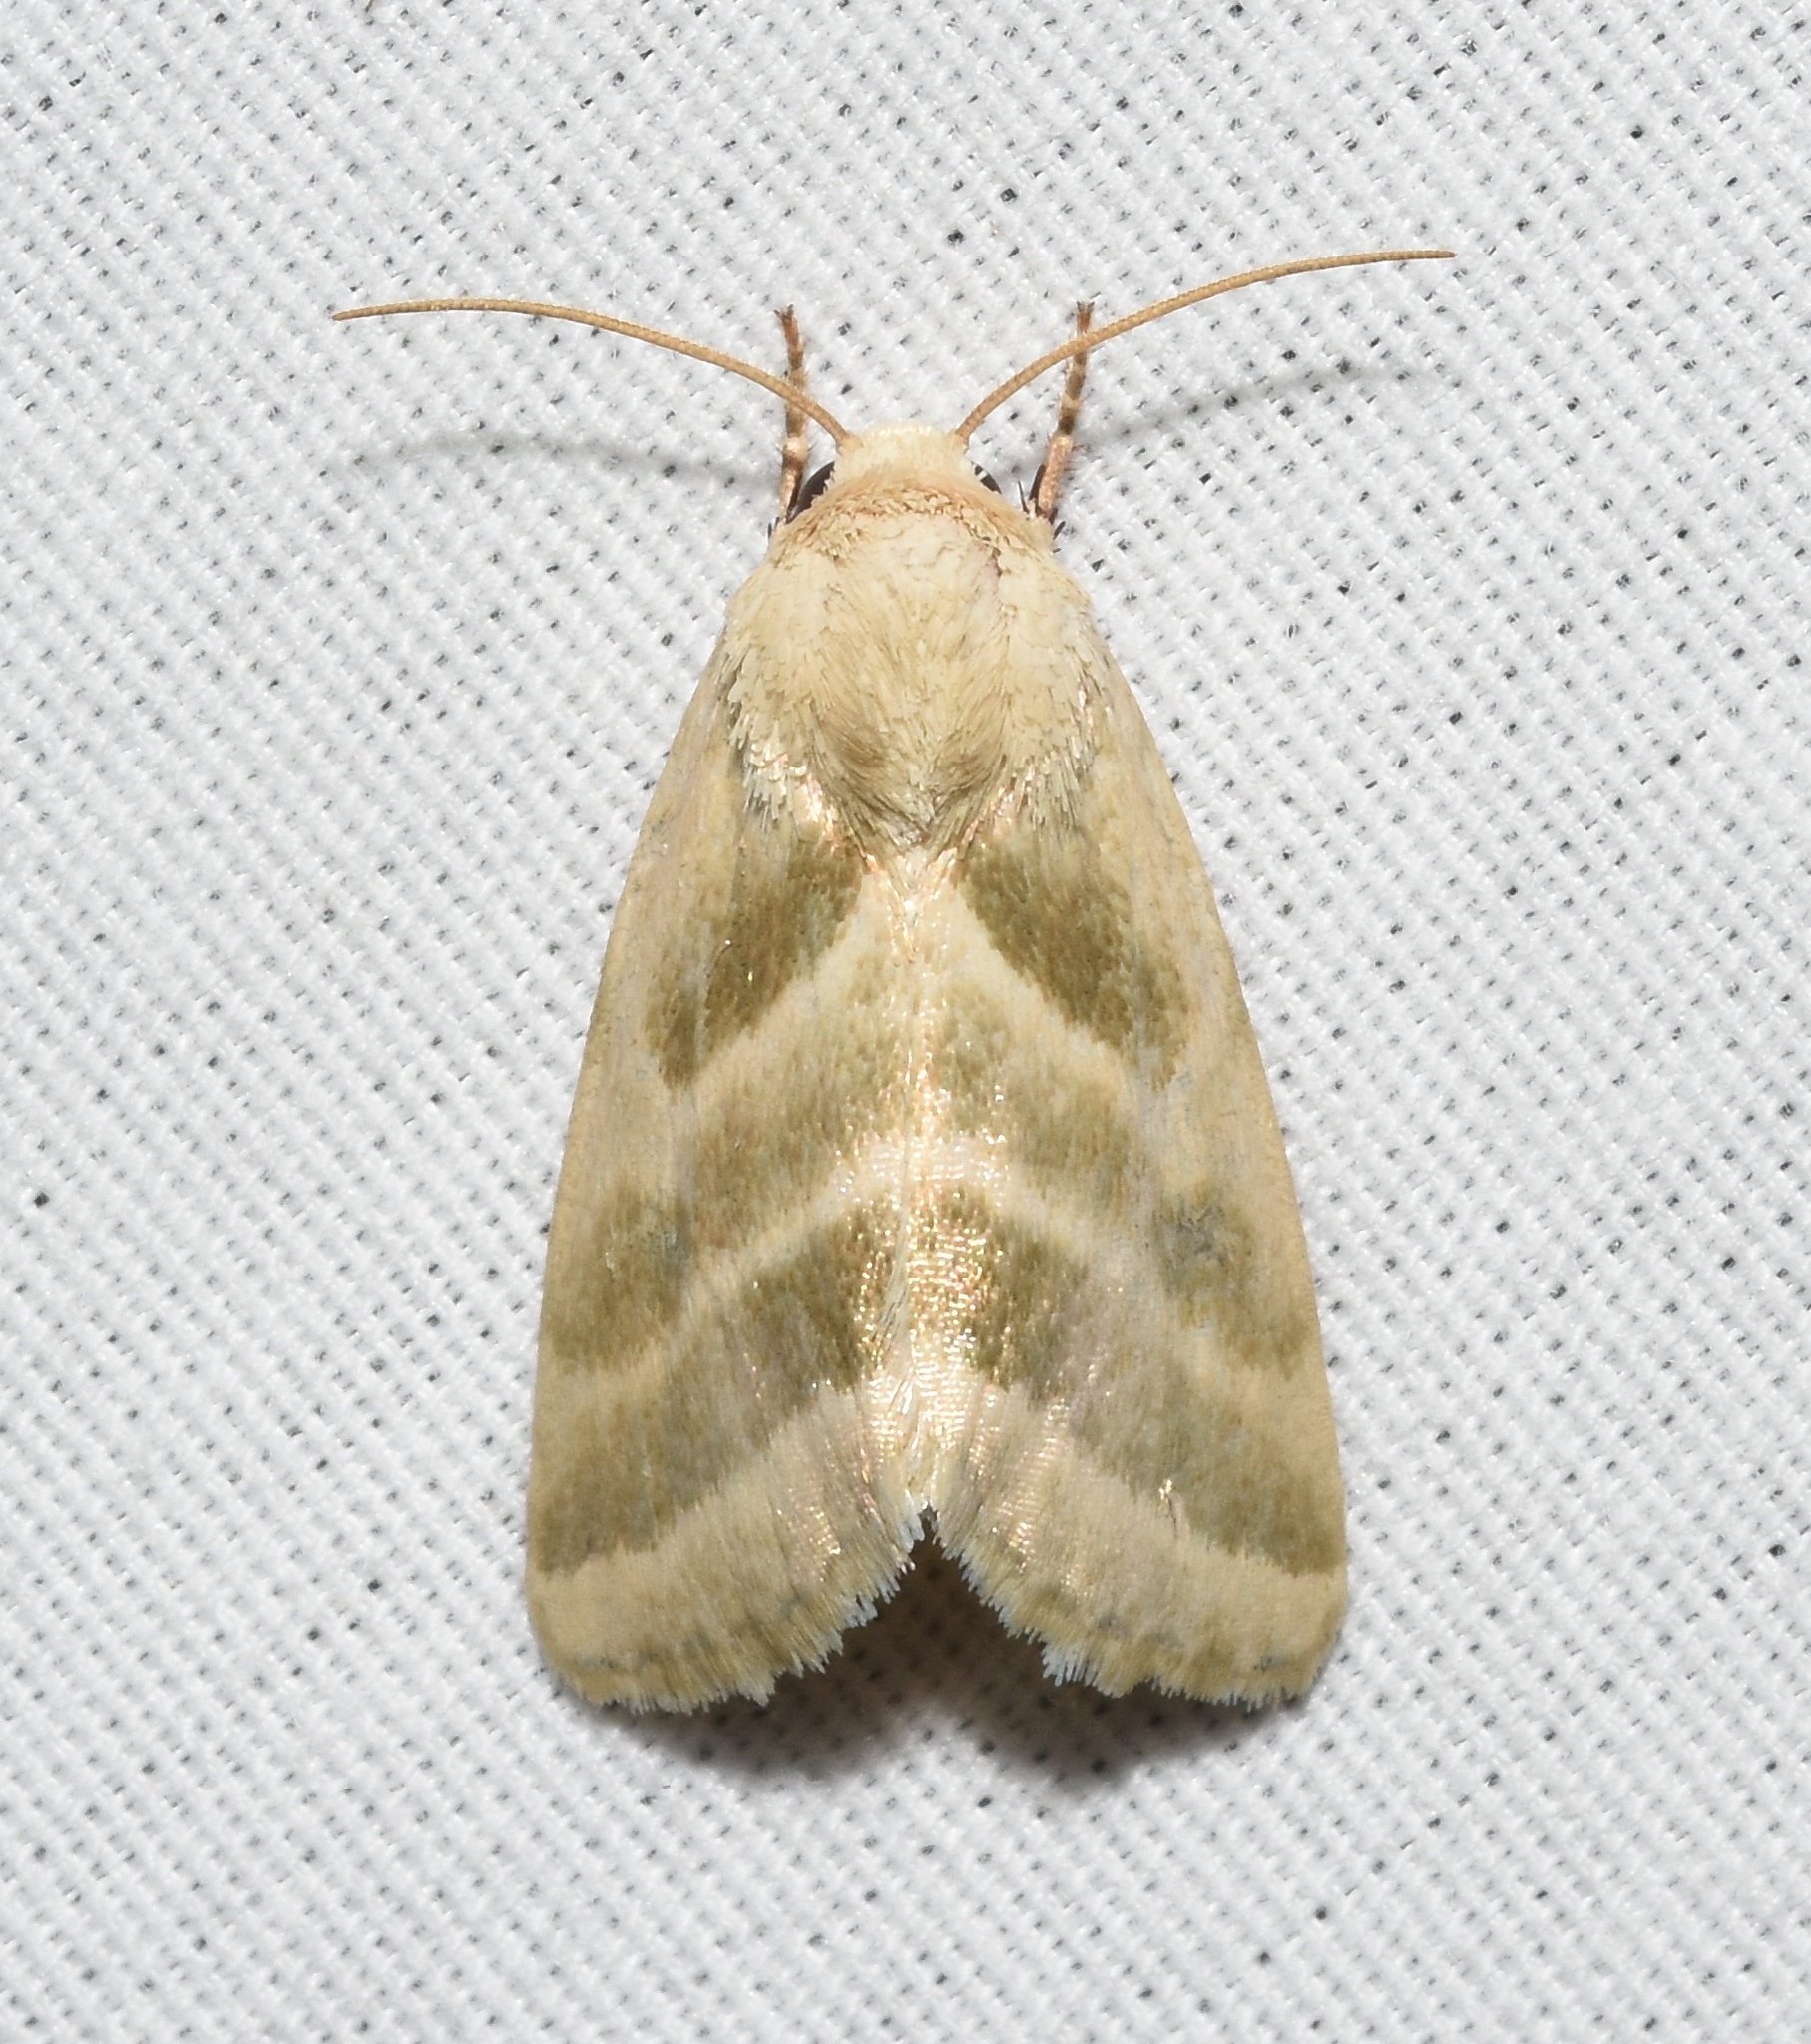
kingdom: Animalia
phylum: Arthropoda
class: Insecta
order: Lepidoptera
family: Noctuidae
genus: Schinia
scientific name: Schinia trifascia
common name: Three-lined flower moth
